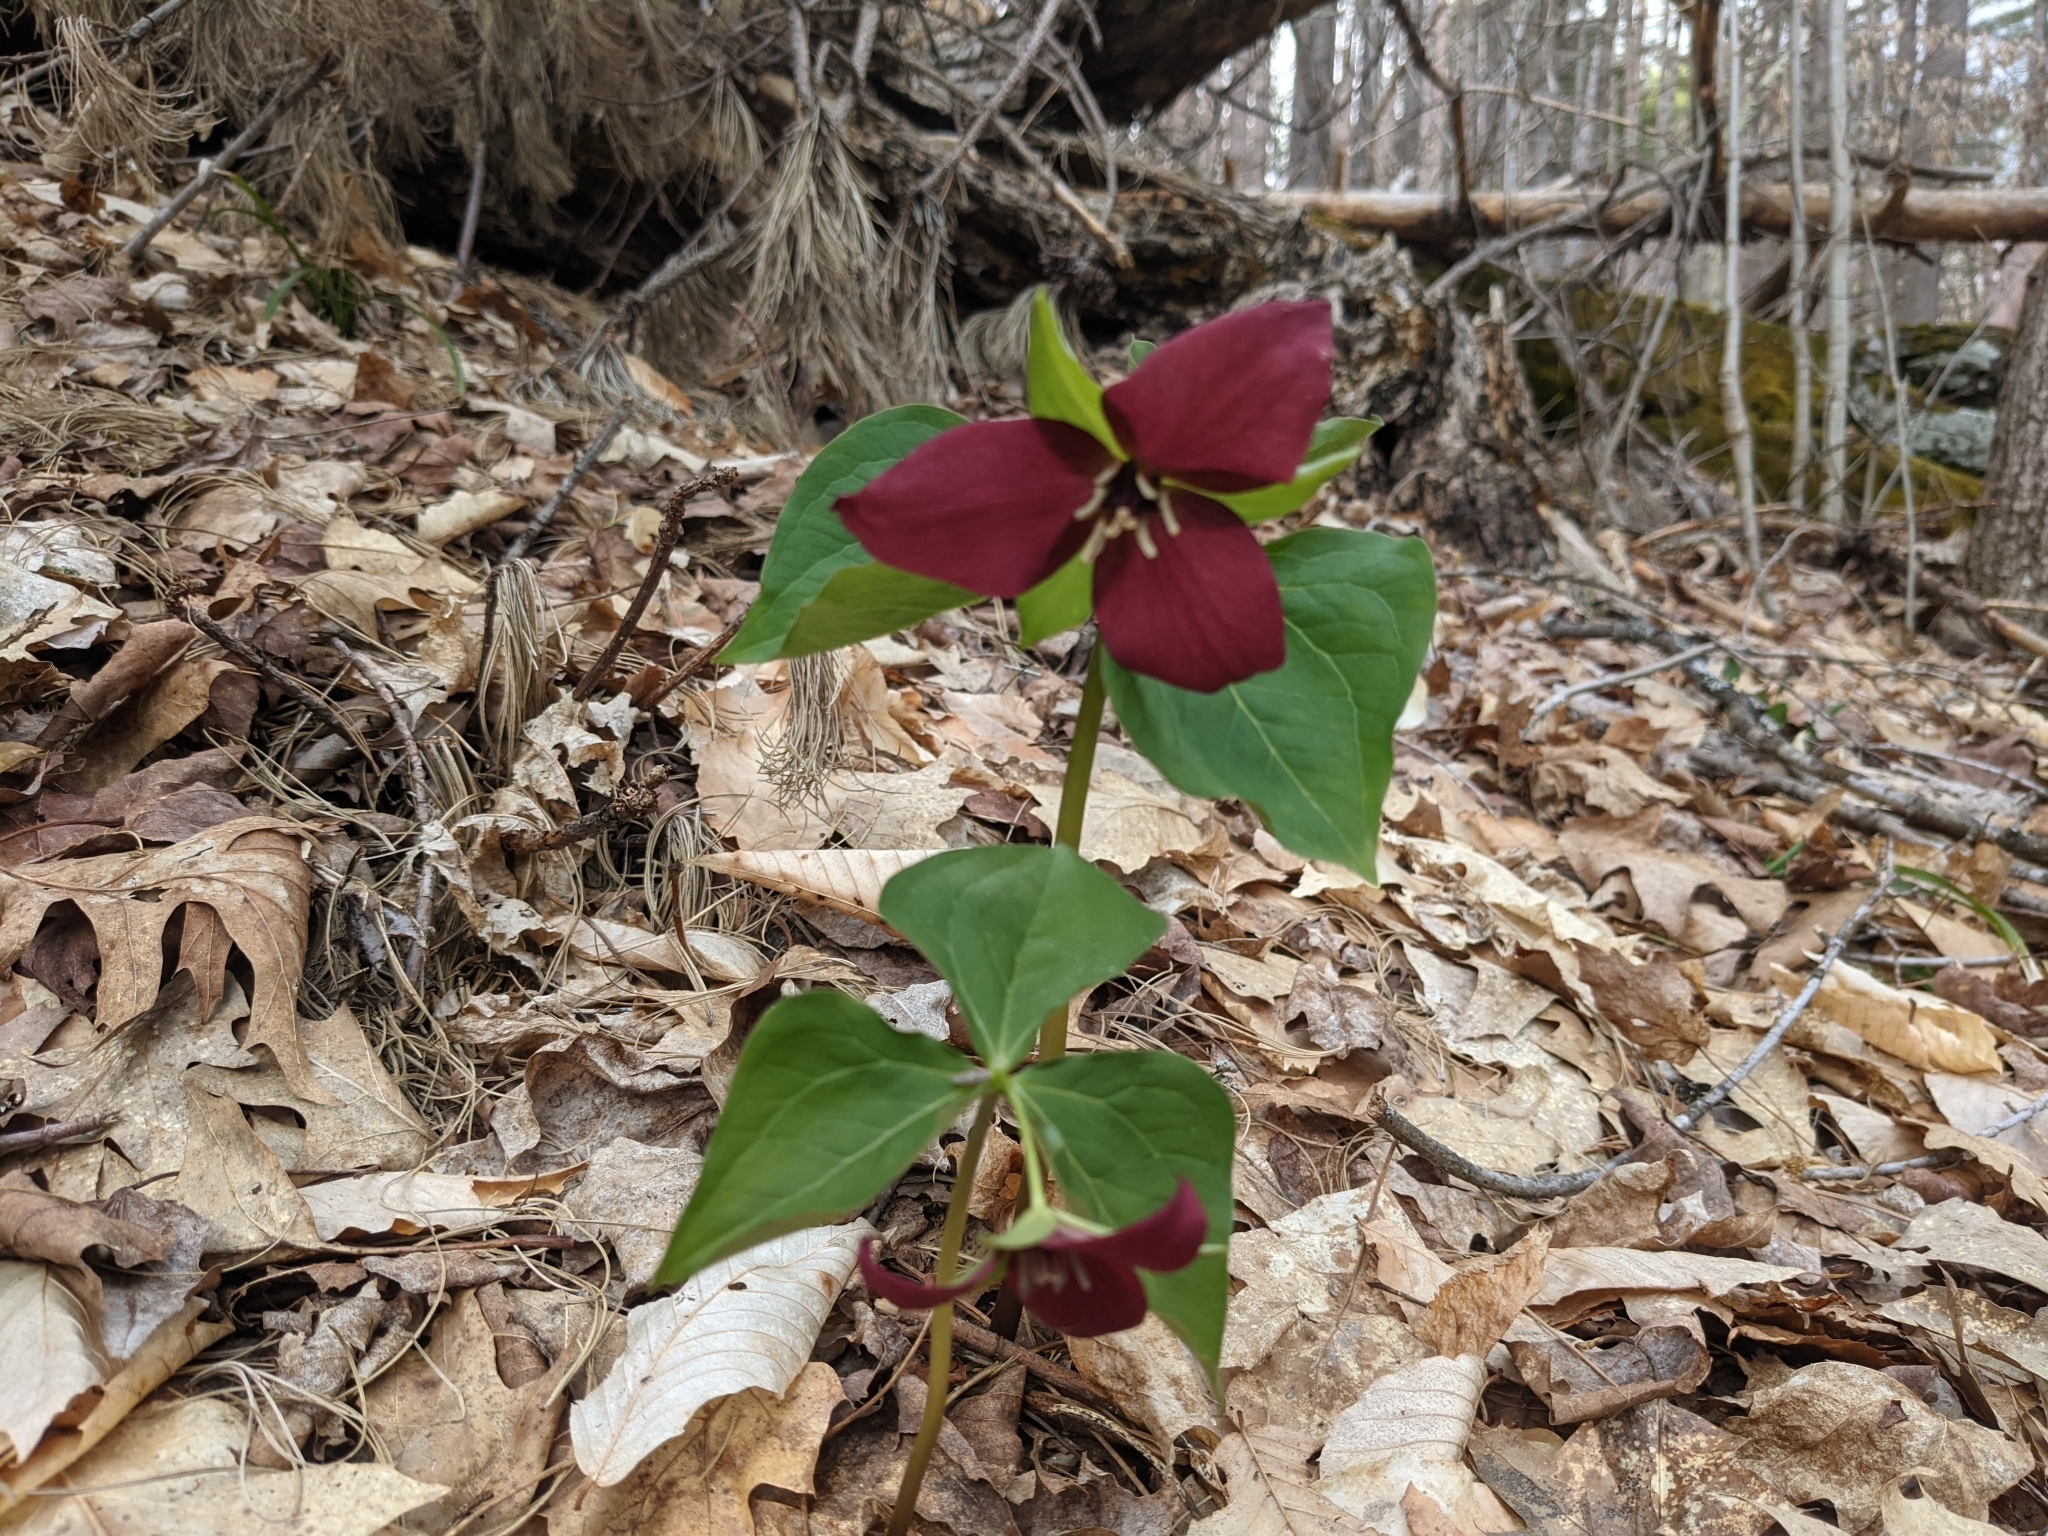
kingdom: Plantae
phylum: Tracheophyta
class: Liliopsida
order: Liliales
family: Melanthiaceae
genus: Trillium
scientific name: Trillium erectum
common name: Purple trillium
